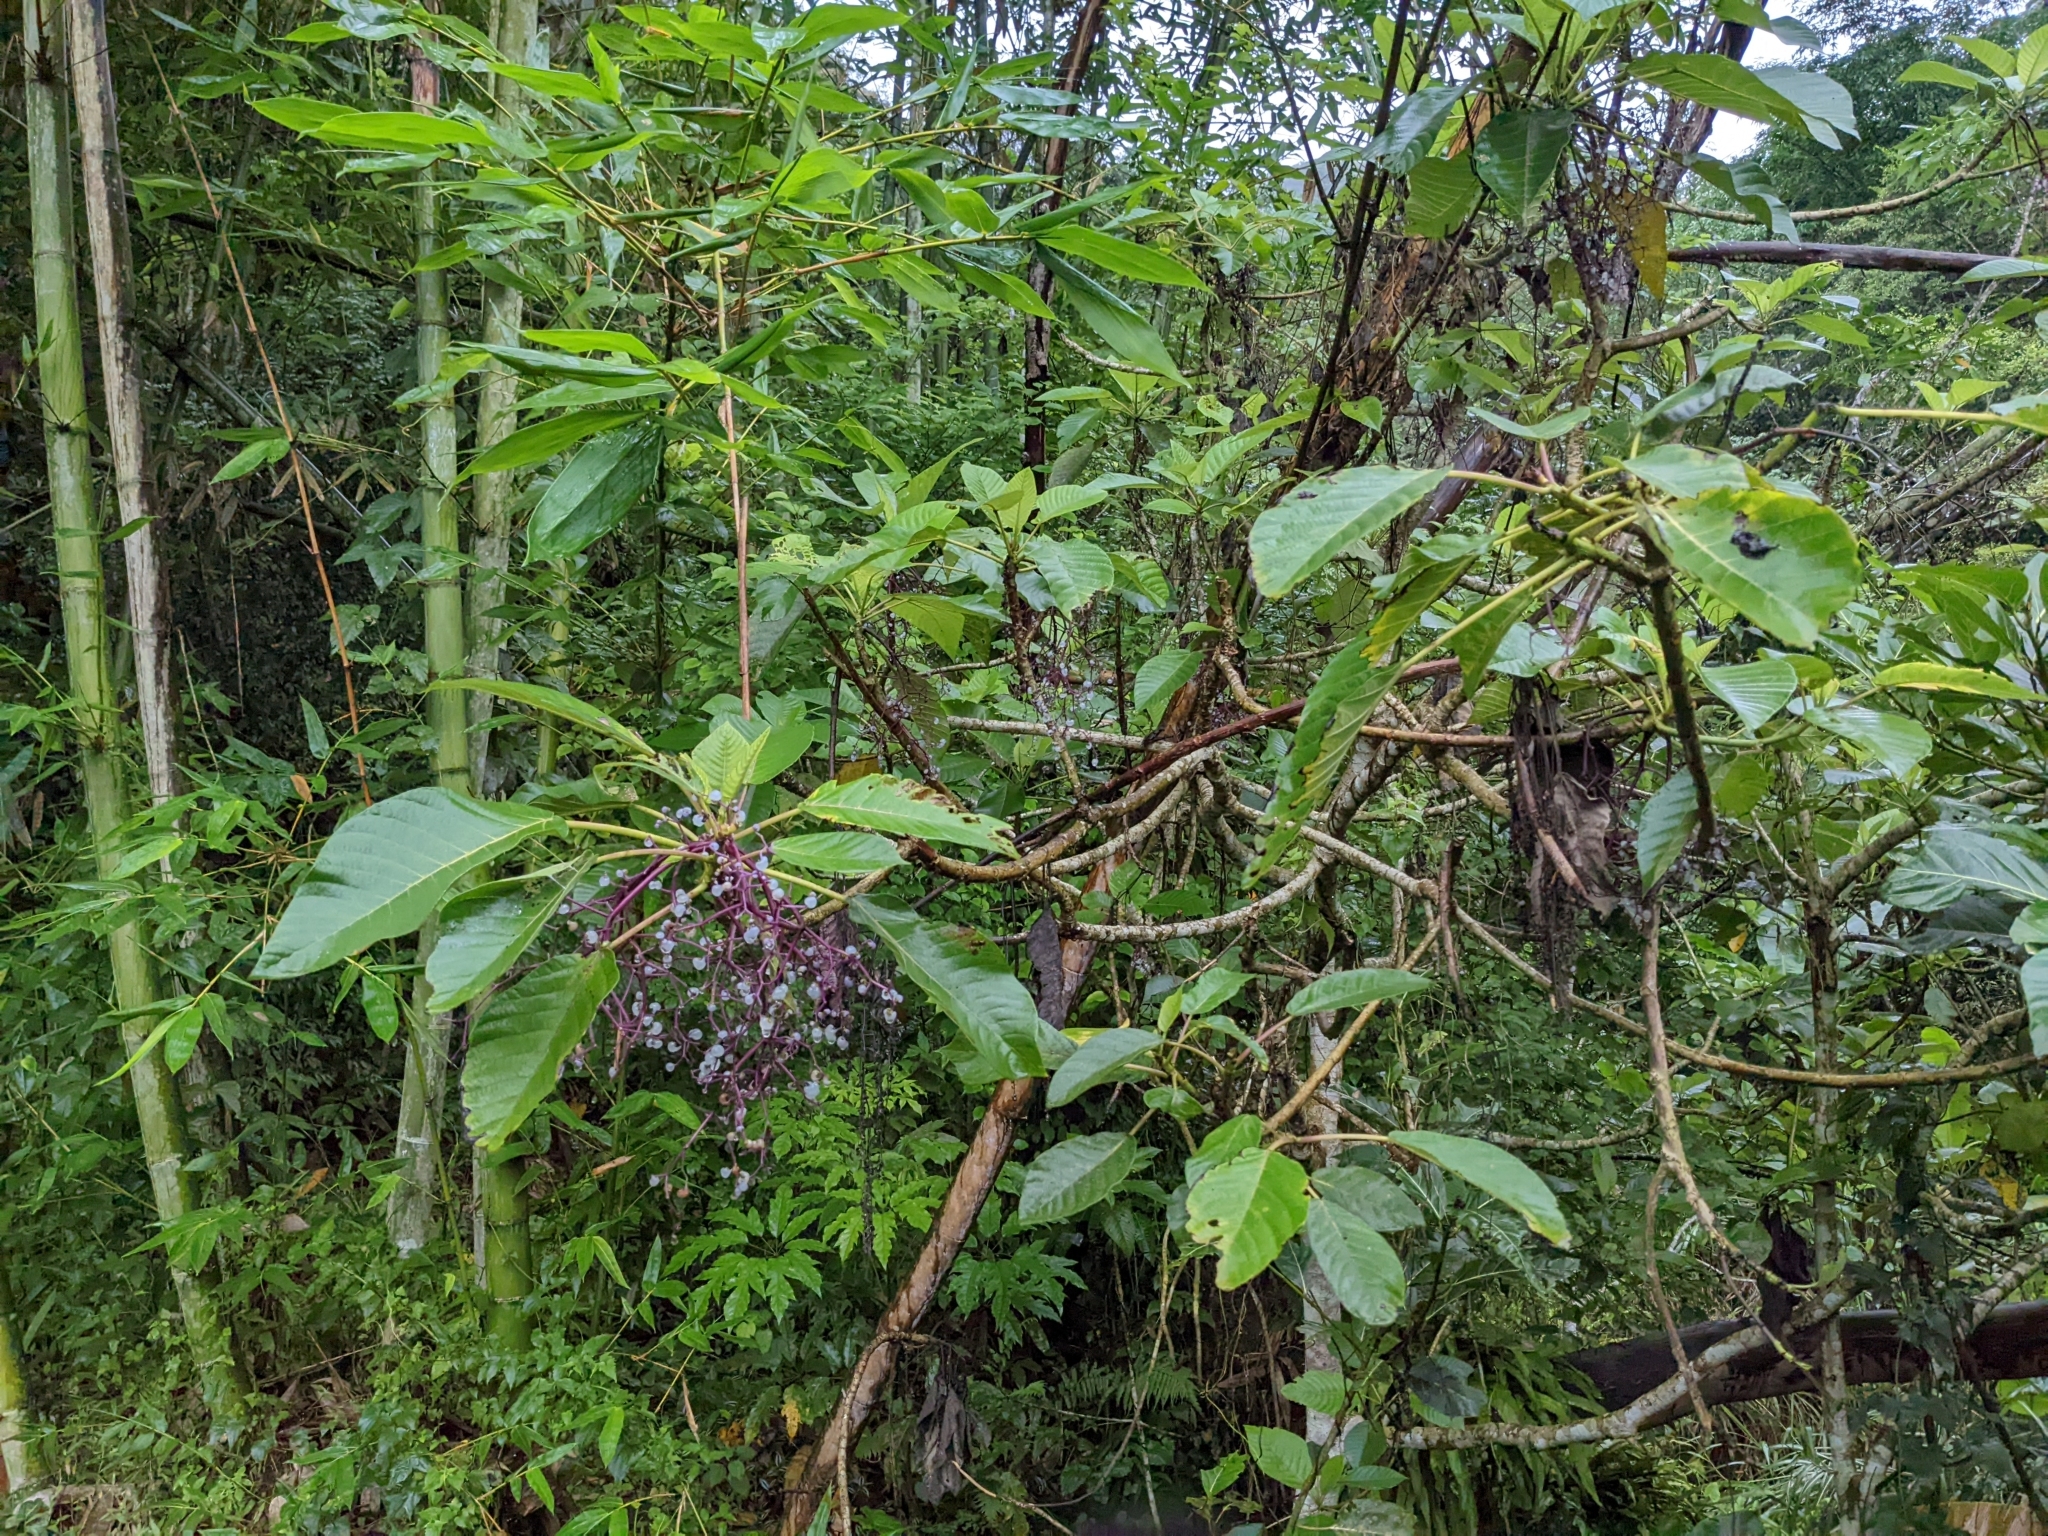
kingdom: Plantae
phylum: Tracheophyta
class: Magnoliopsida
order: Rosales
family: Urticaceae
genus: Dendrocnide
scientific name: Dendrocnide meyeniana
